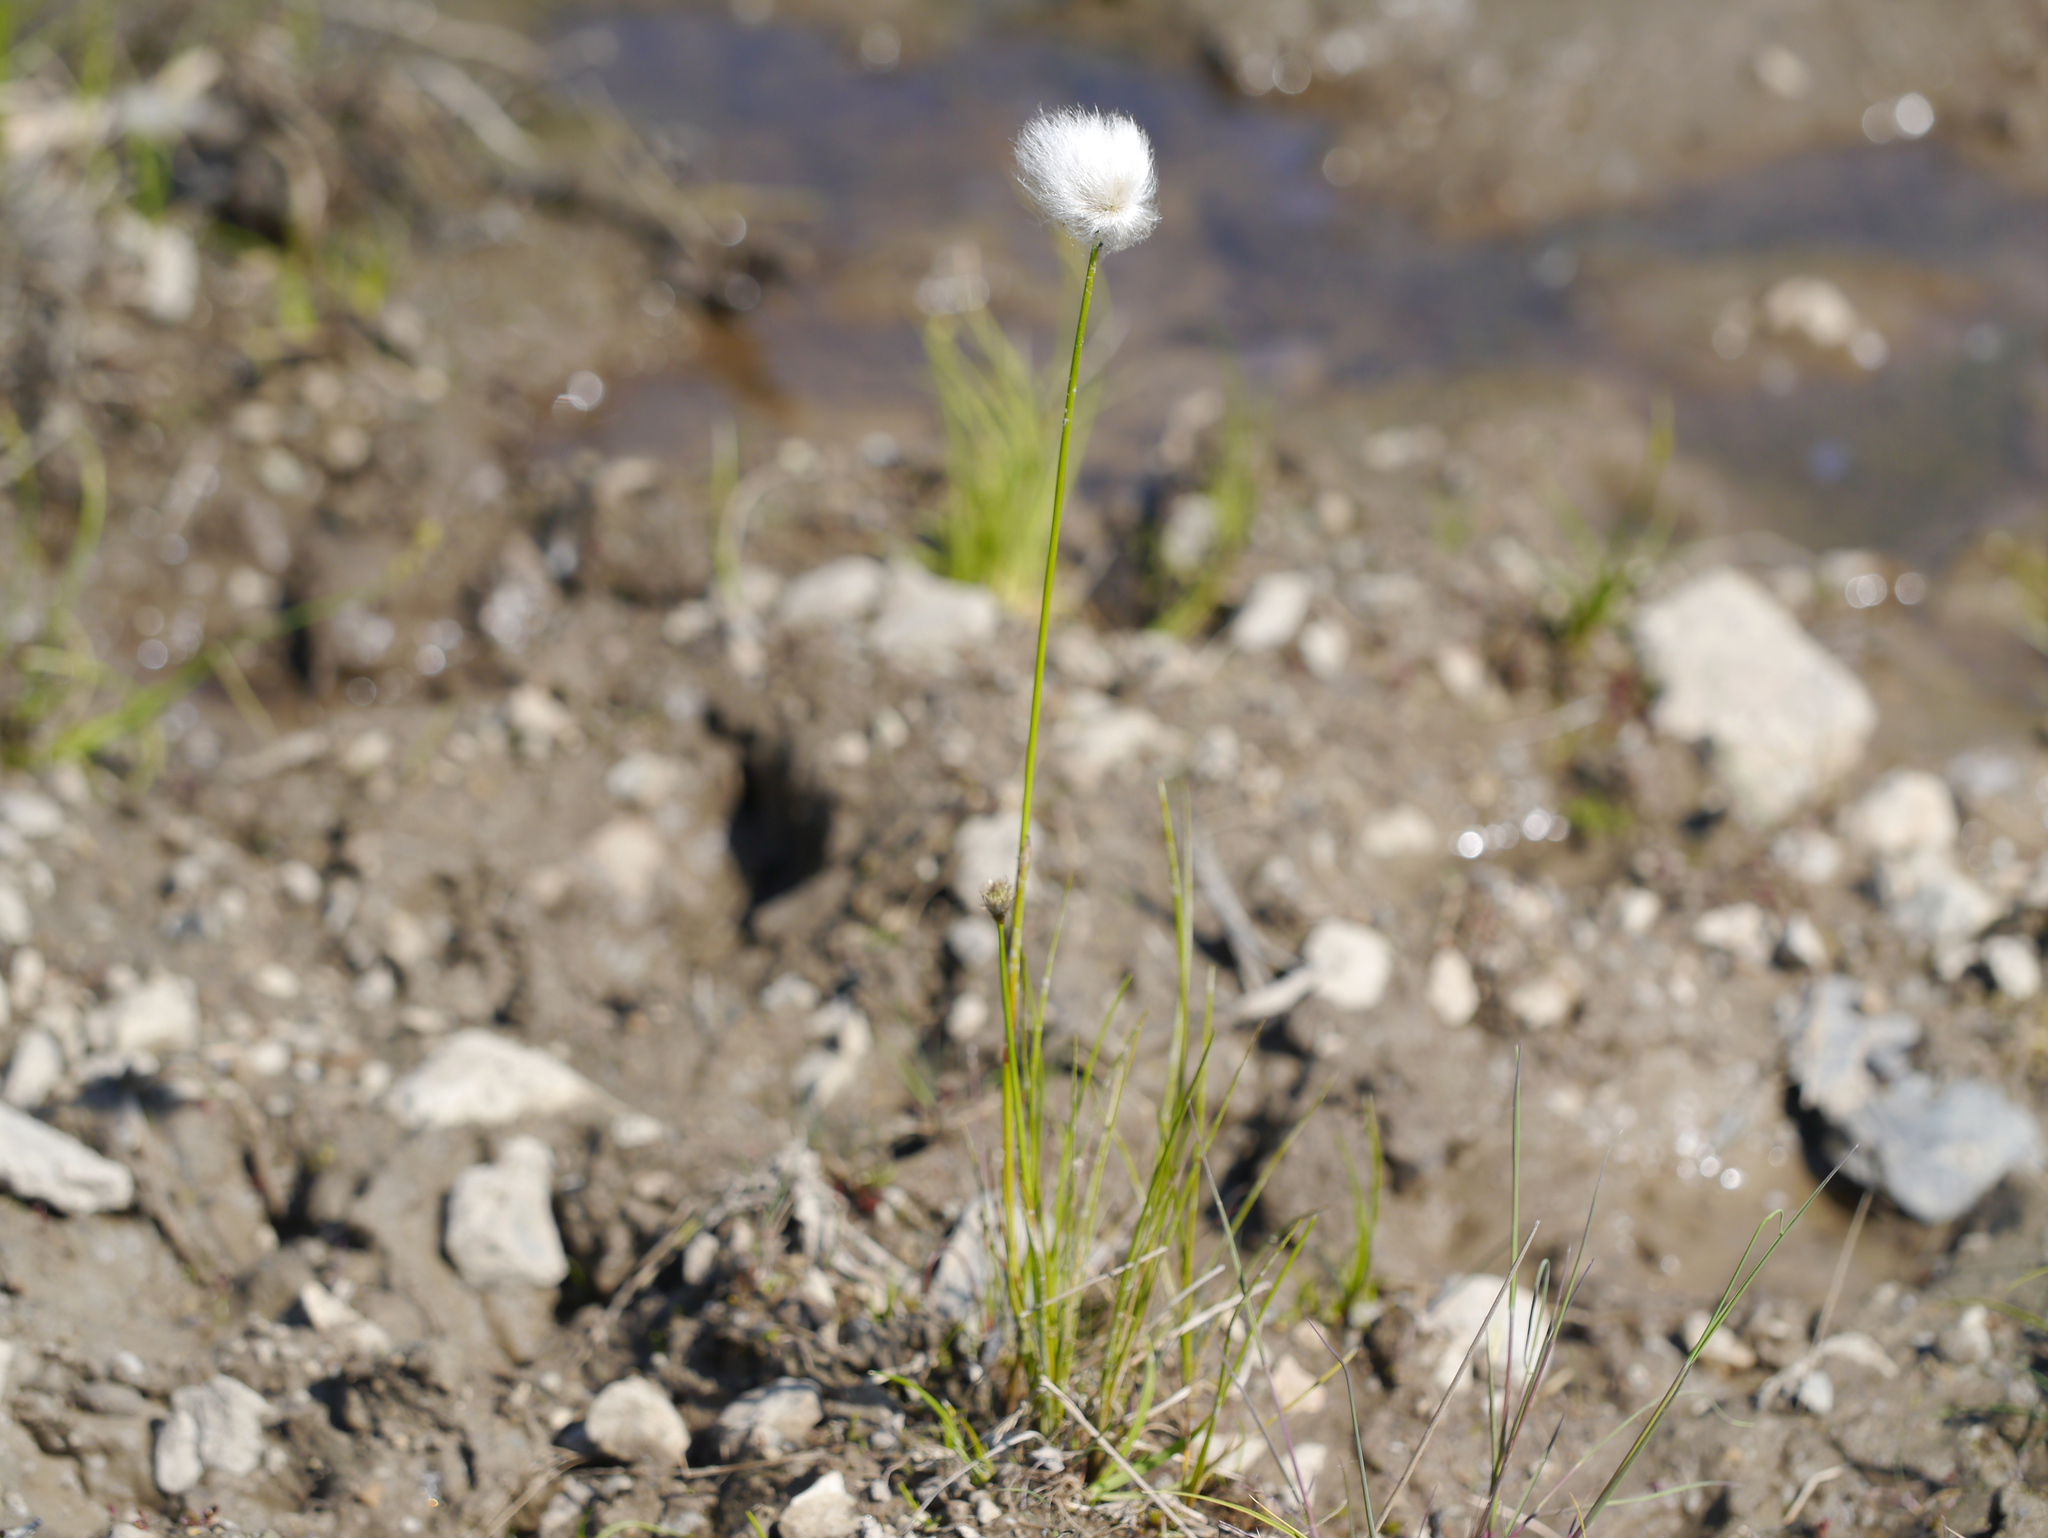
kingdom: Plantae
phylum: Tracheophyta
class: Liliopsida
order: Poales
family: Cyperaceae
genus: Eriophorum
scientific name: Eriophorum scheuchzeri
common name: Scheuchzer's cottongrass
